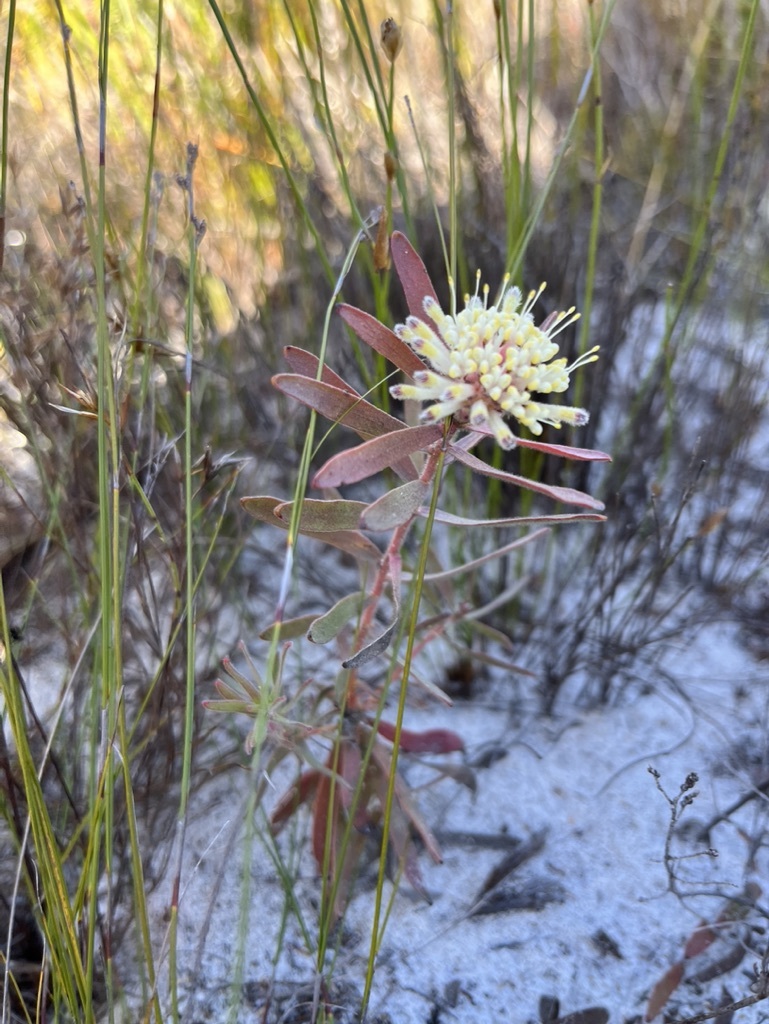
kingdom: Plantae
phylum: Tracheophyta
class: Magnoliopsida
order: Proteales
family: Proteaceae
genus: Leucospermum
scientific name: Leucospermum pedunculatum
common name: White-trailing pincushion
